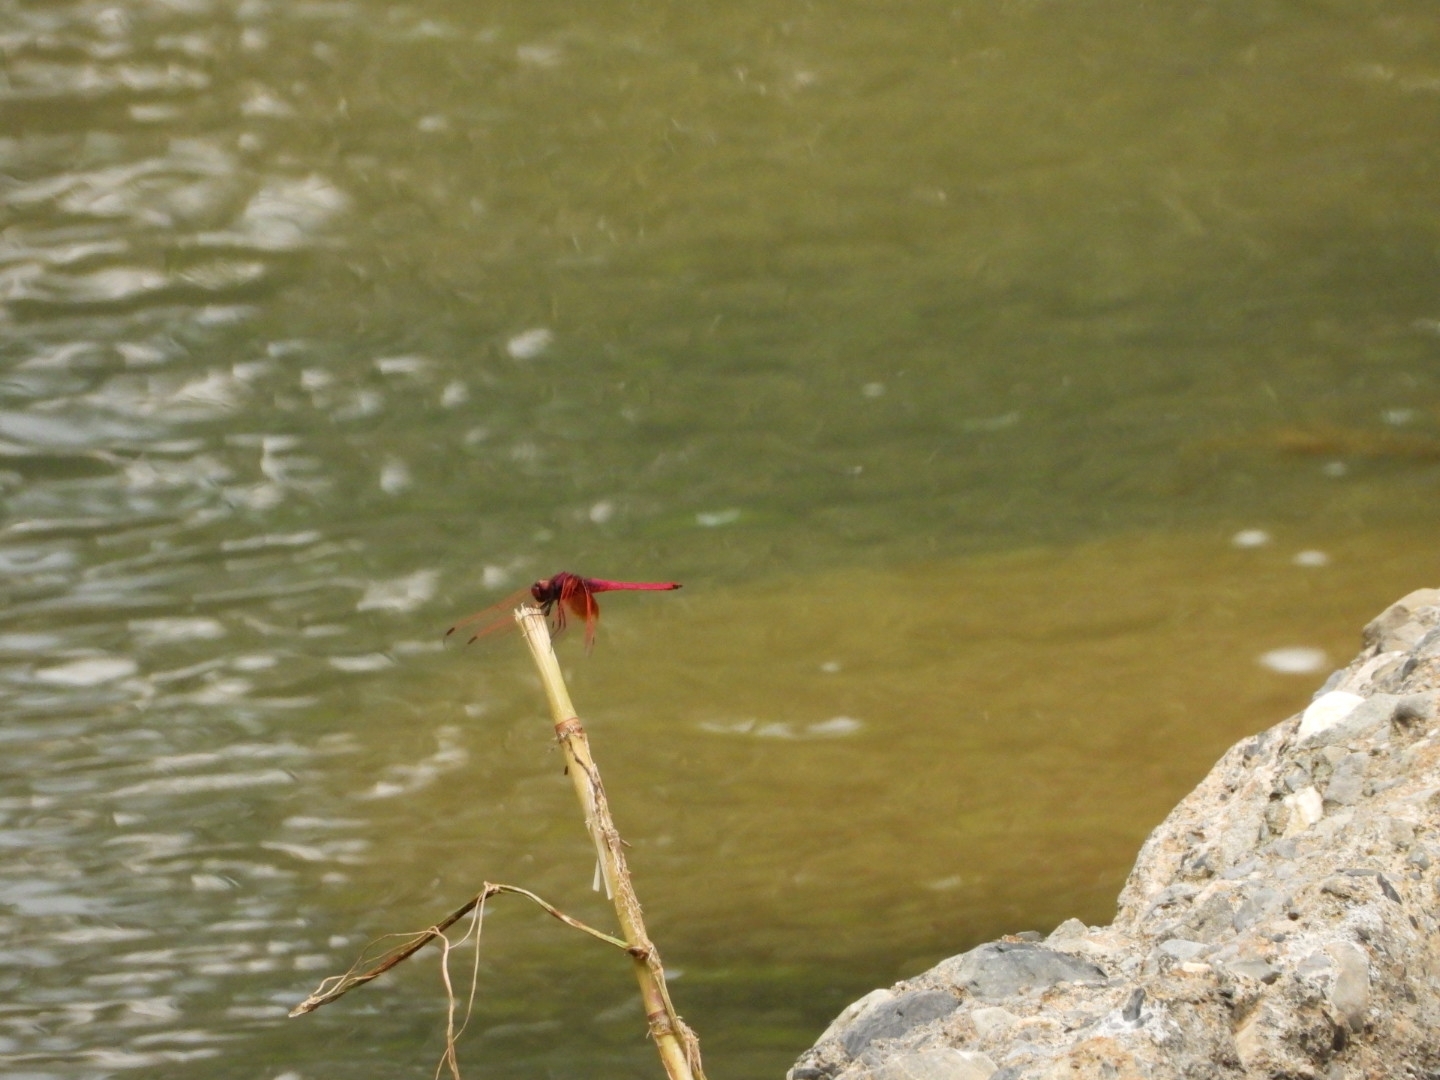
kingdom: Animalia
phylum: Arthropoda
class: Insecta
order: Odonata
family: Libellulidae
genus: Trithemis
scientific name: Trithemis aurora
